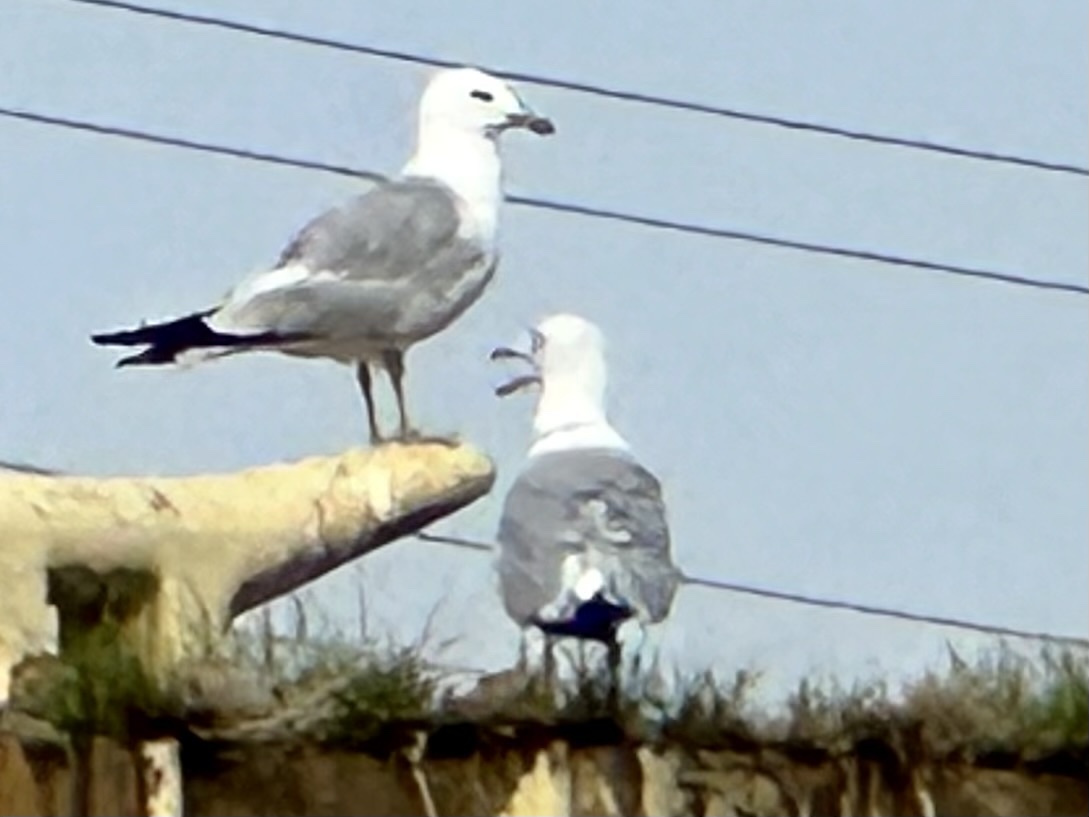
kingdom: Animalia
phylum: Chordata
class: Aves
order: Charadriiformes
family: Laridae
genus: Larus
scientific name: Larus delawarensis
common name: Ring-billed gull
